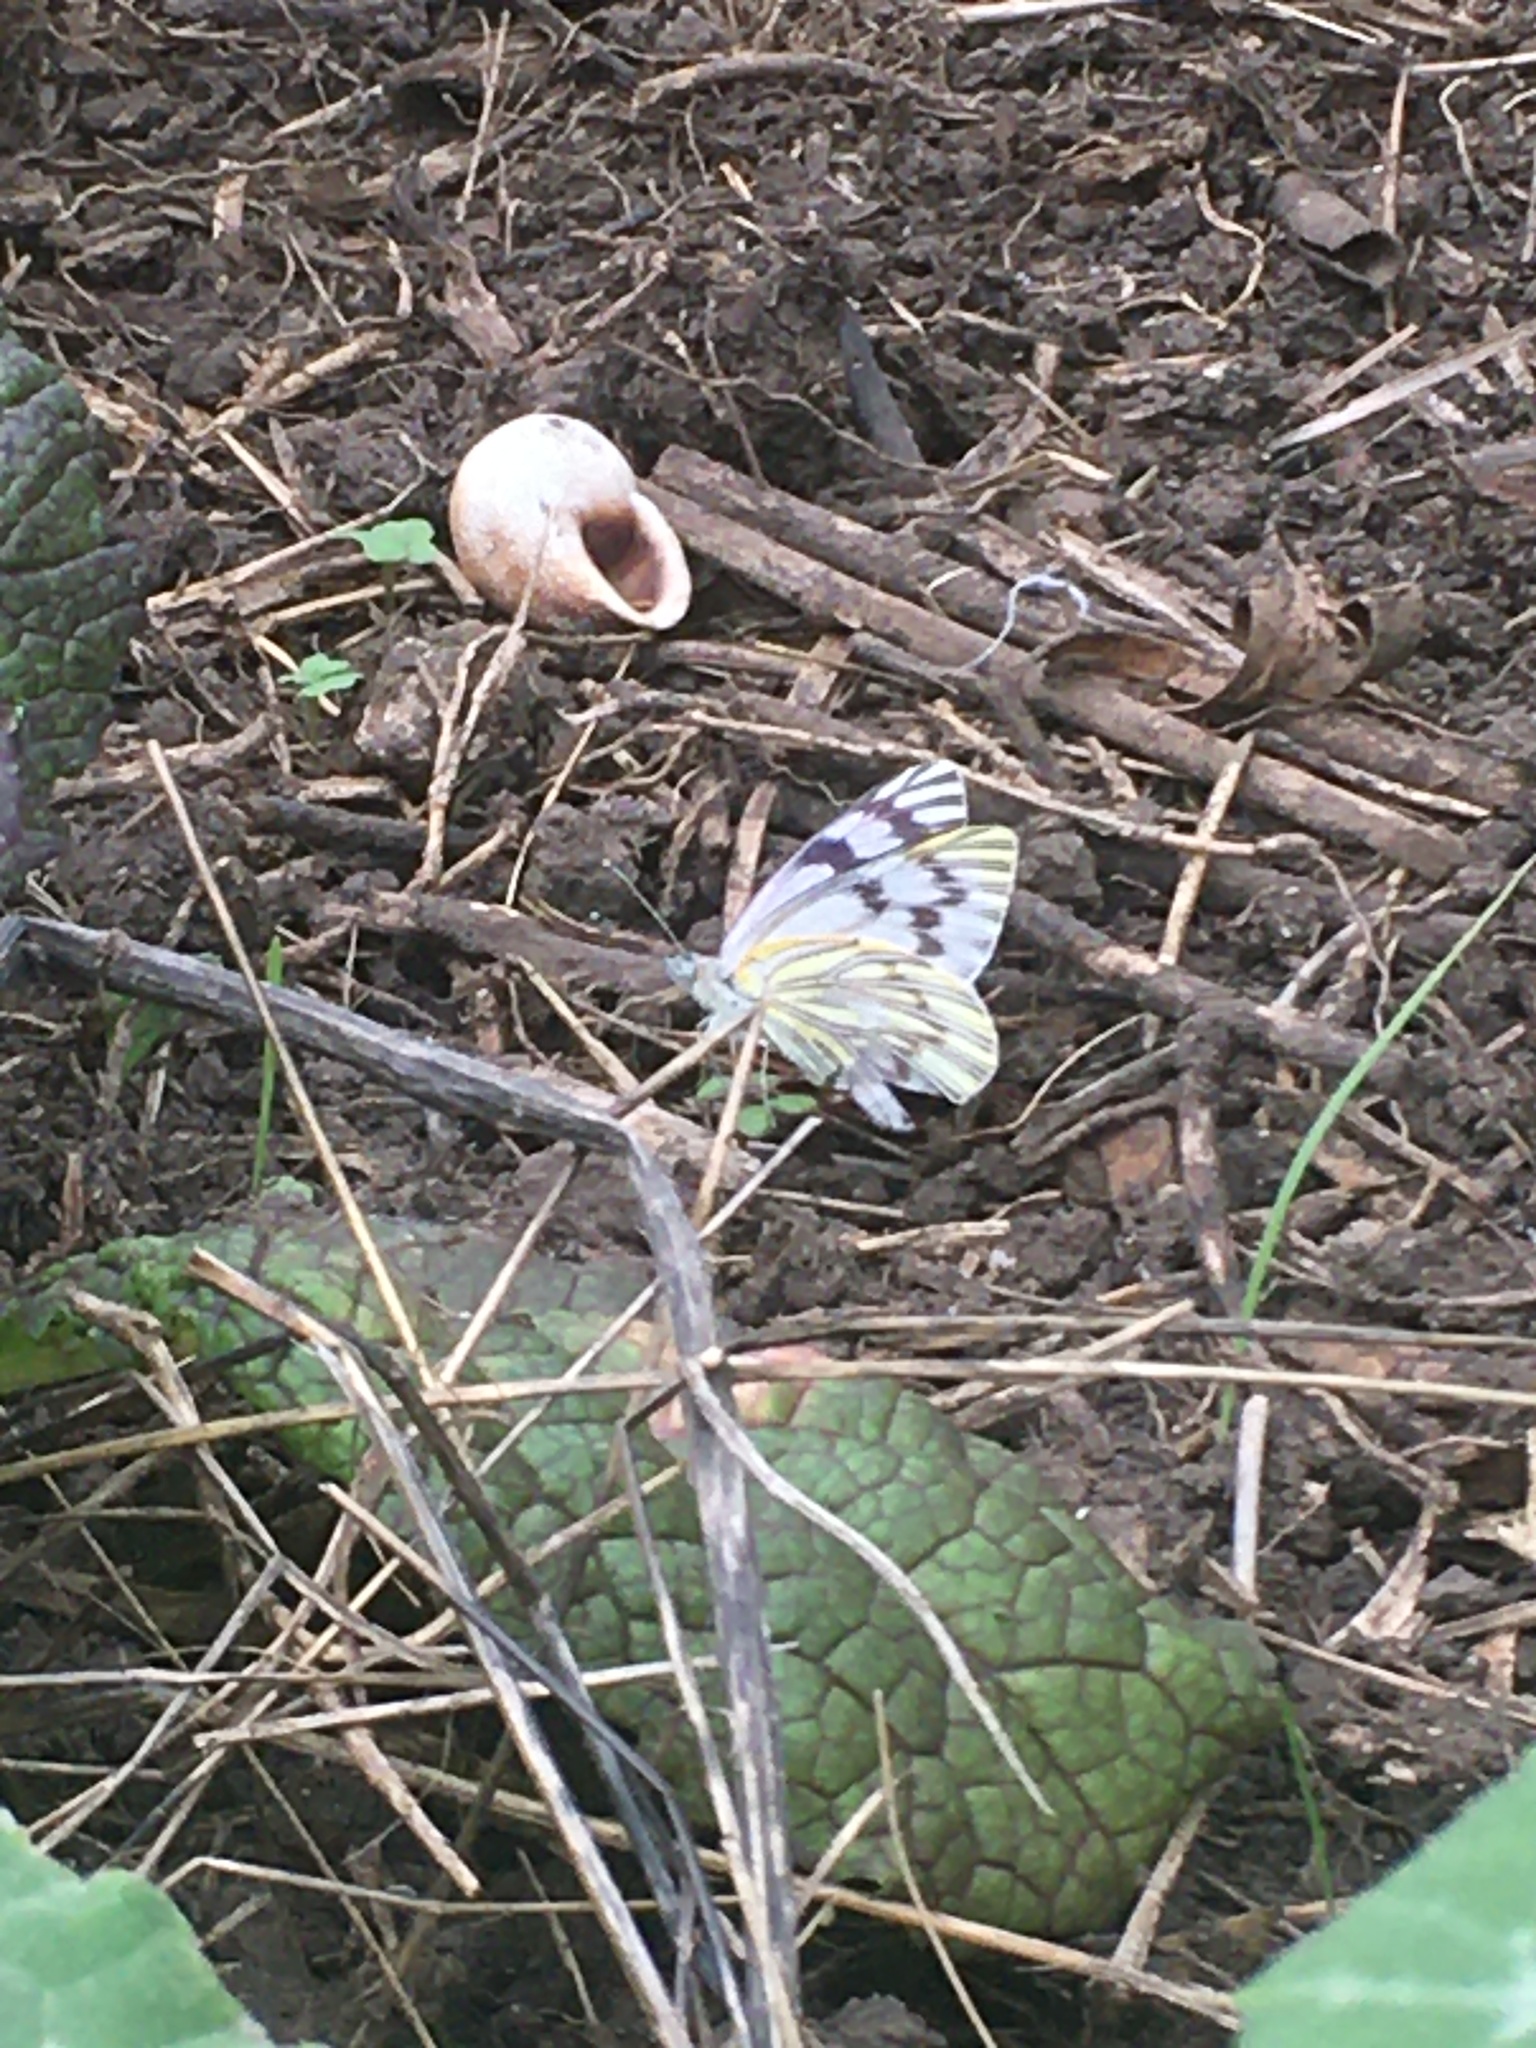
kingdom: Animalia
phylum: Arthropoda
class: Insecta
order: Lepidoptera
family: Pieridae
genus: Tatochila
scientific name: Tatochila mercedis
